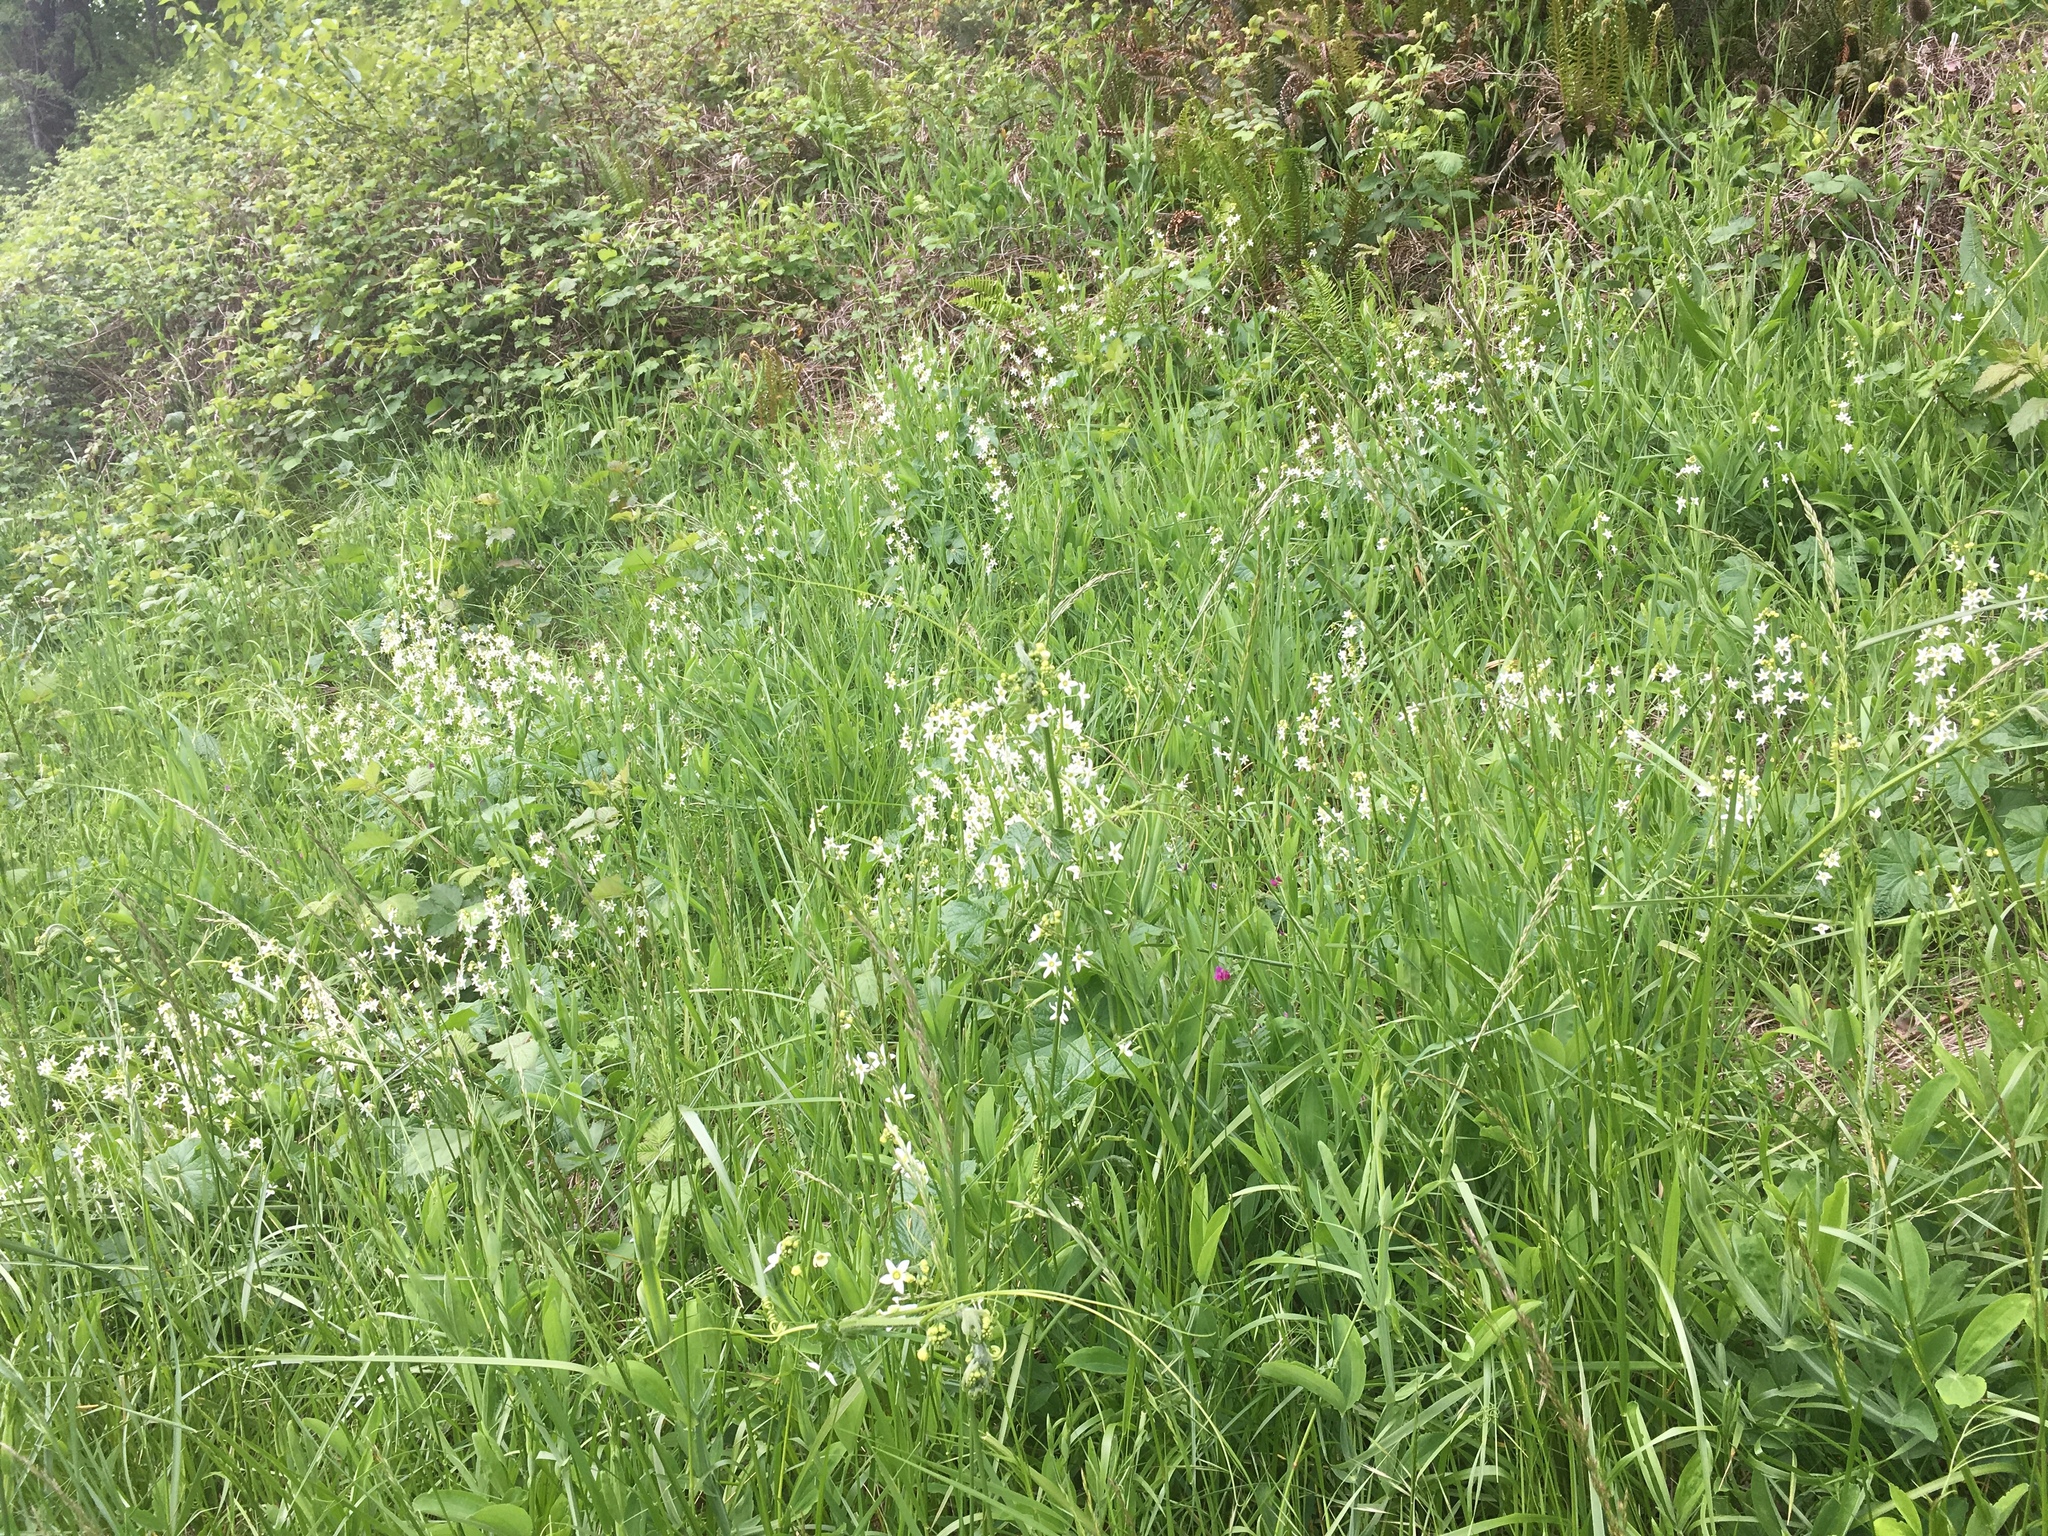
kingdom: Plantae
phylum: Tracheophyta
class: Magnoliopsida
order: Cucurbitales
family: Cucurbitaceae
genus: Marah
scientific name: Marah oregana
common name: Coastal manroot
